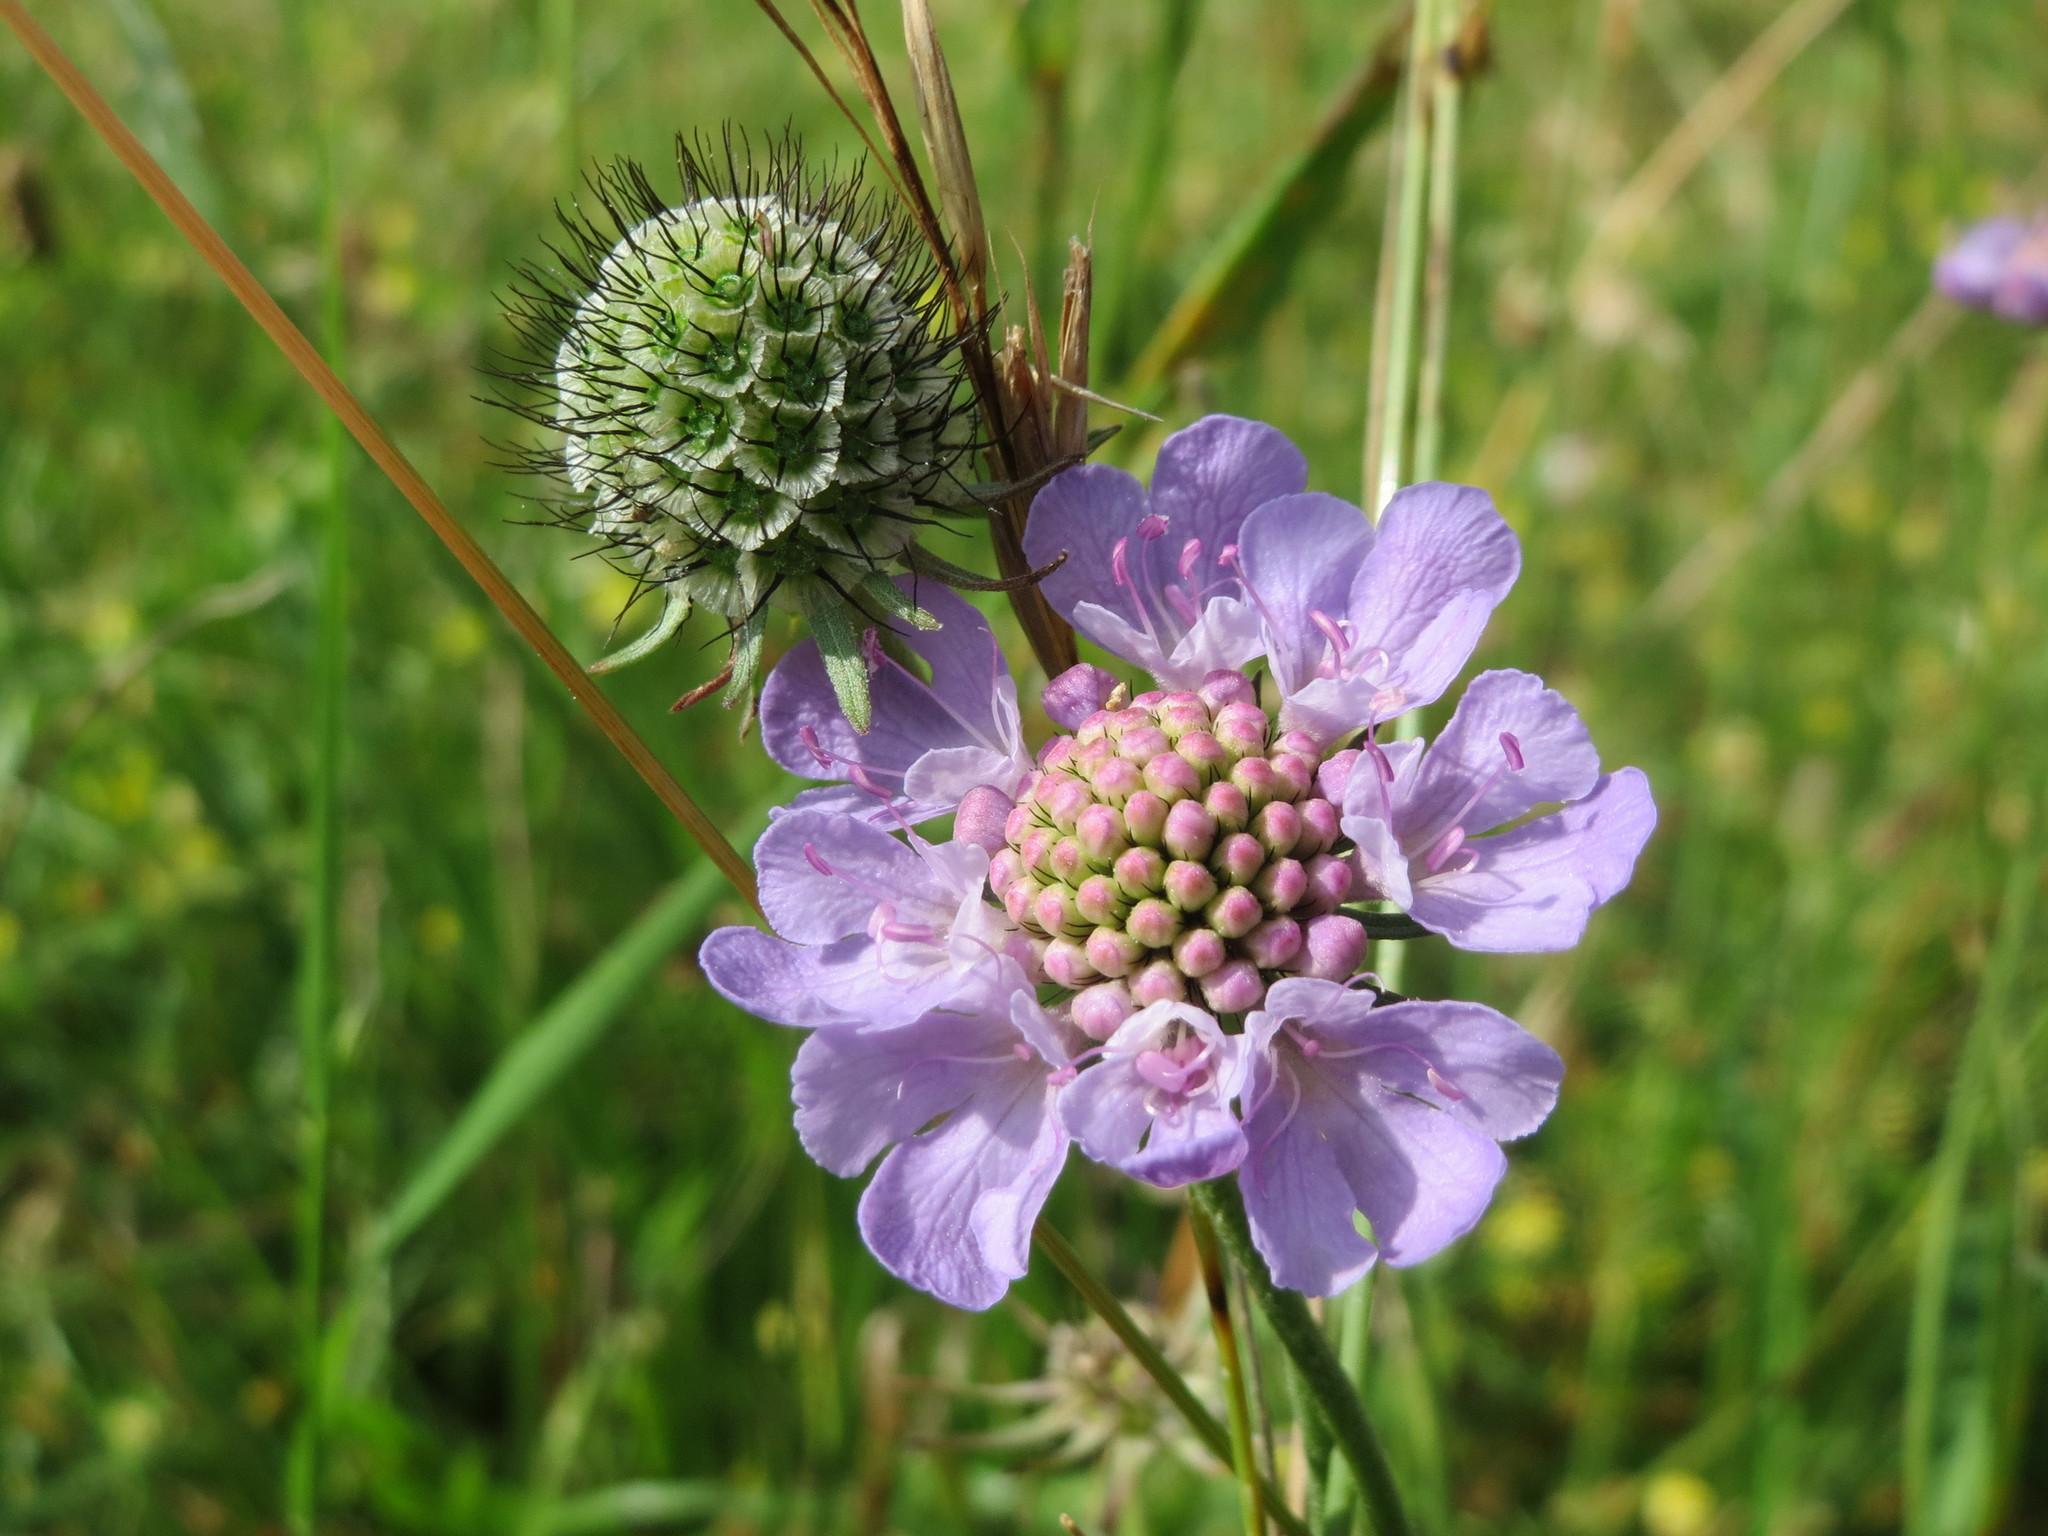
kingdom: Plantae
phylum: Tracheophyta
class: Magnoliopsida
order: Dipsacales
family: Caprifoliaceae
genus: Scabiosa
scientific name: Scabiosa columbaria
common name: Small scabious
